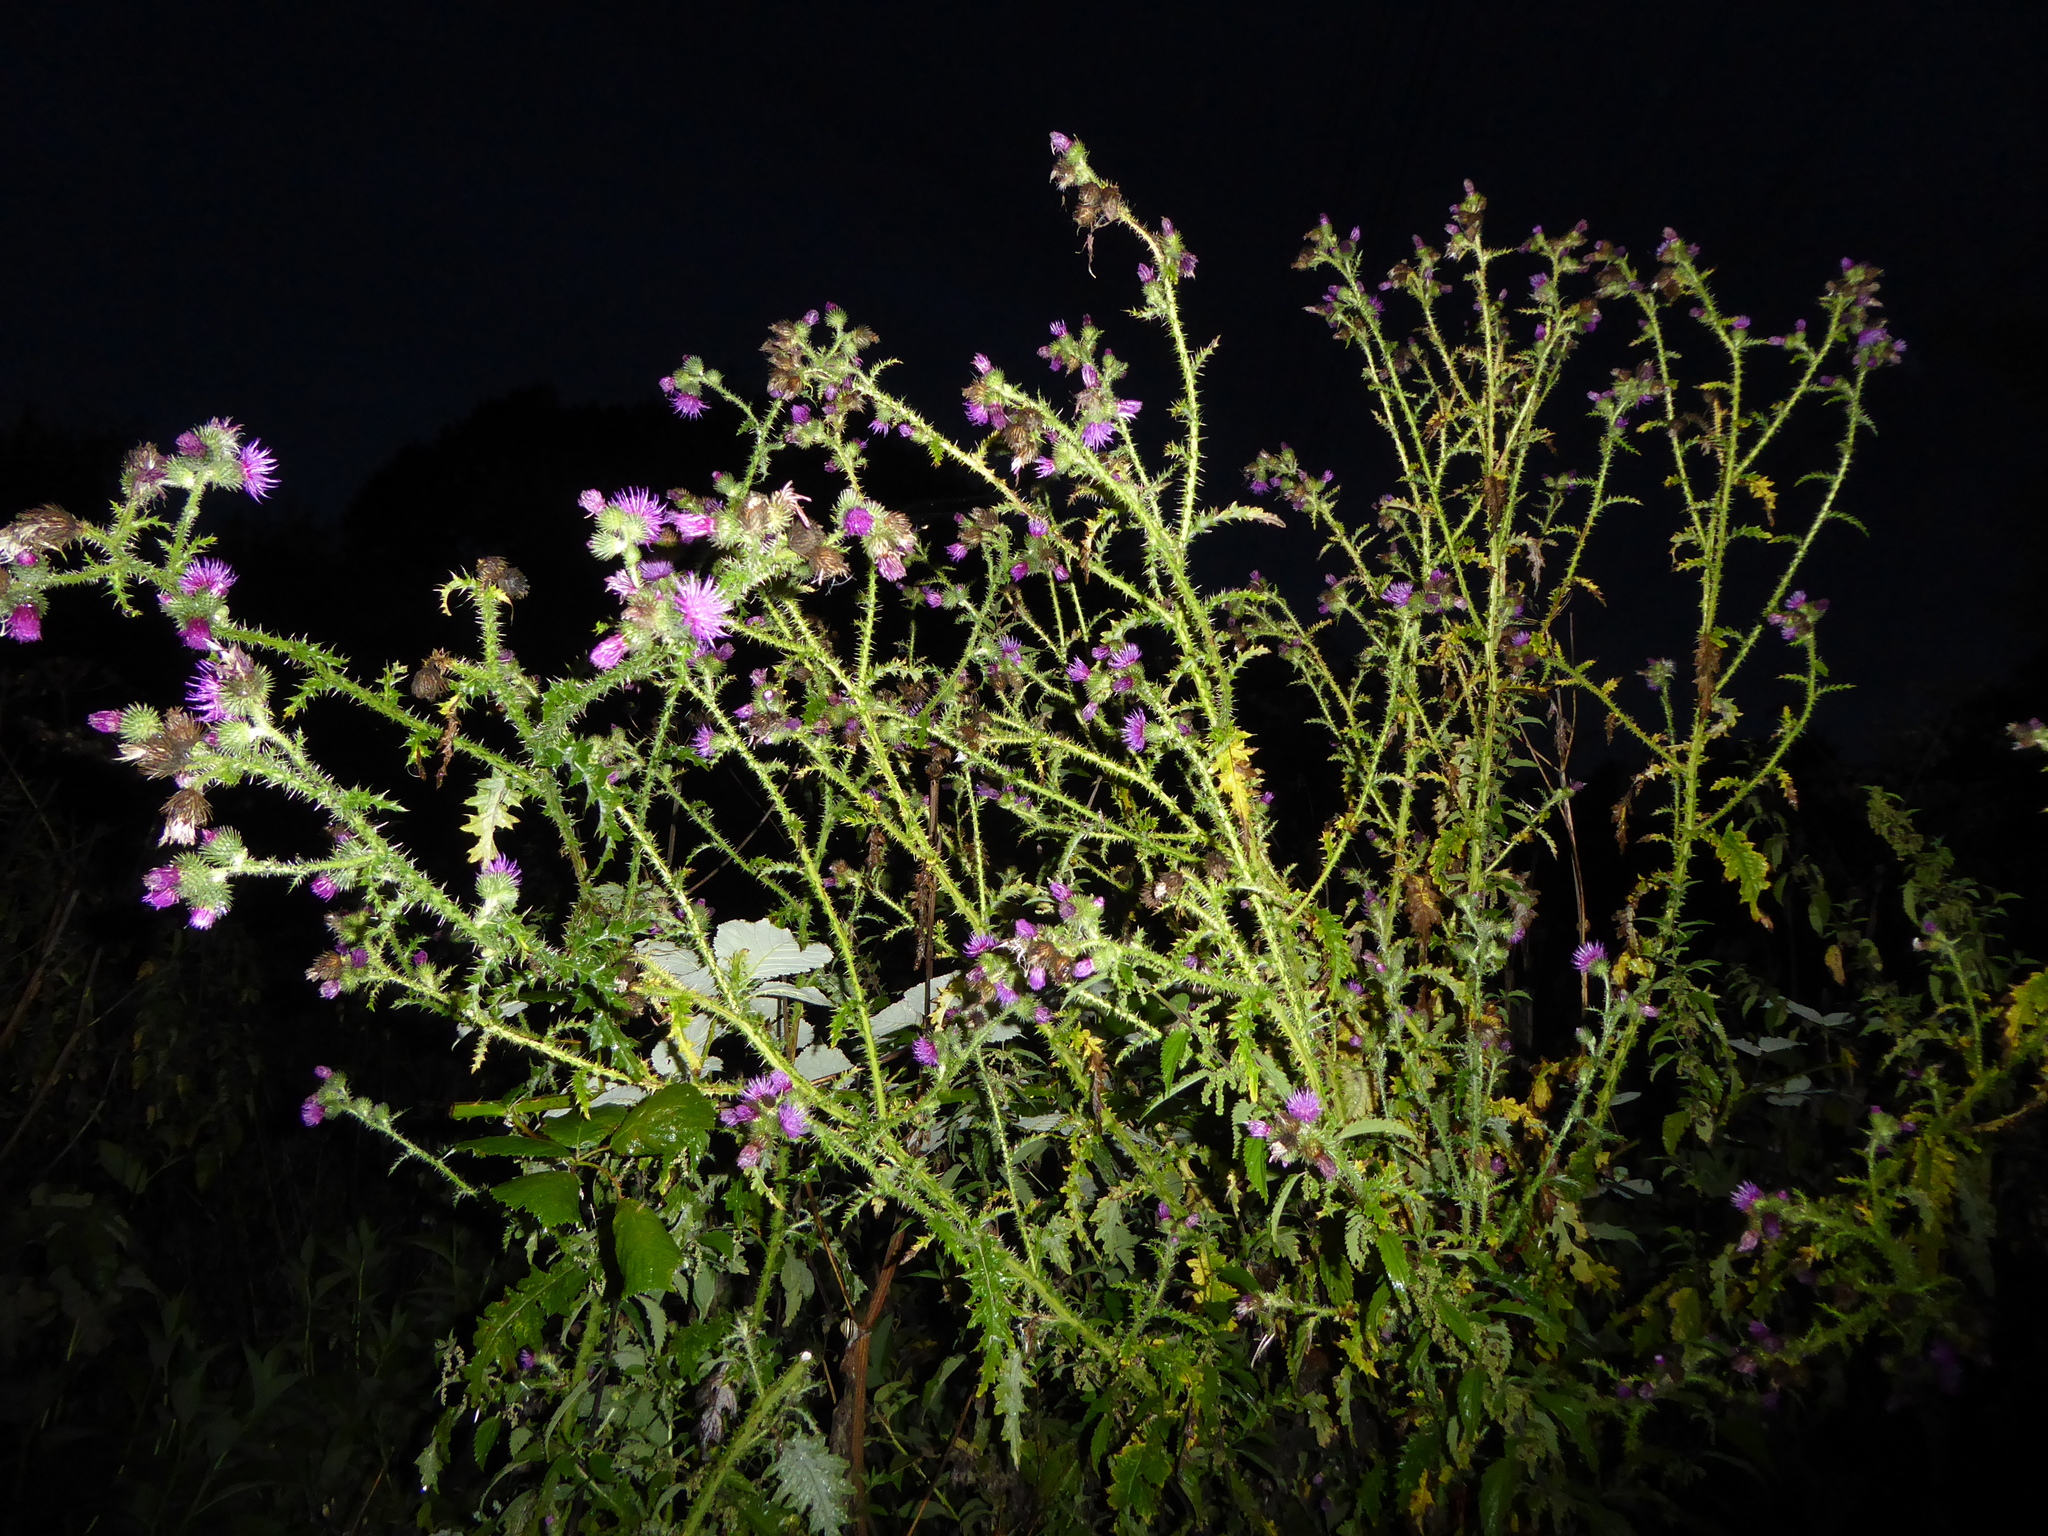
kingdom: Plantae
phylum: Tracheophyta
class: Magnoliopsida
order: Asterales
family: Asteraceae
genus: Carduus
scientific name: Carduus crispus
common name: Welted thistle
